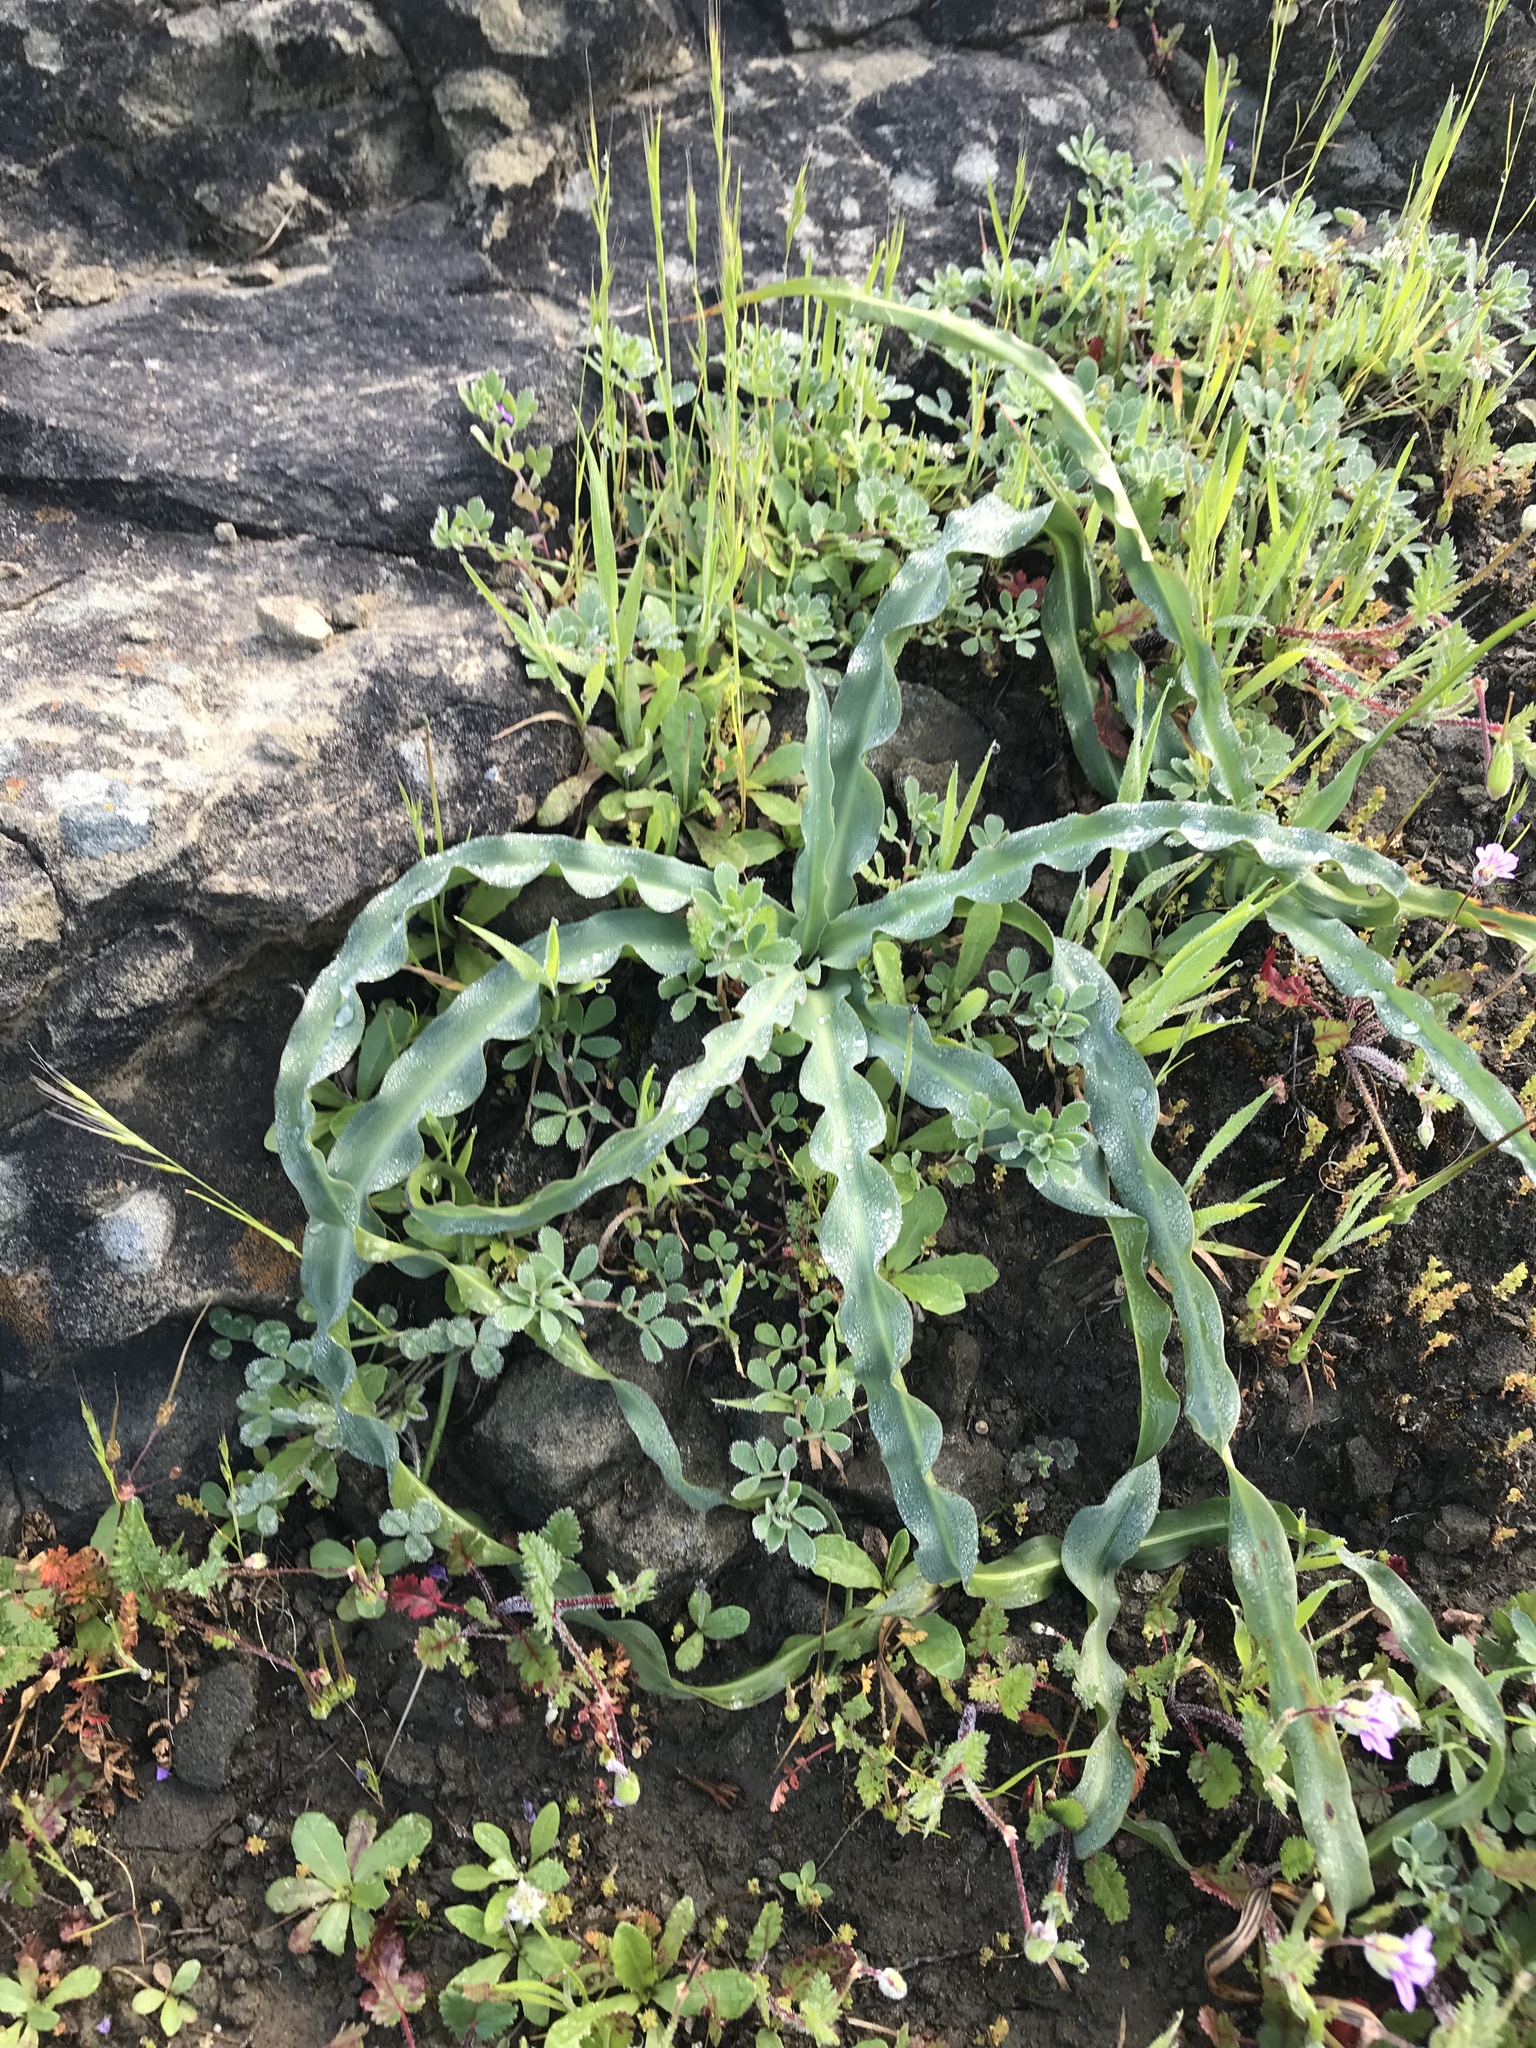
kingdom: Plantae
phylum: Tracheophyta
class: Liliopsida
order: Asparagales
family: Asparagaceae
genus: Chlorogalum
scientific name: Chlorogalum pomeridianum
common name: Amole
